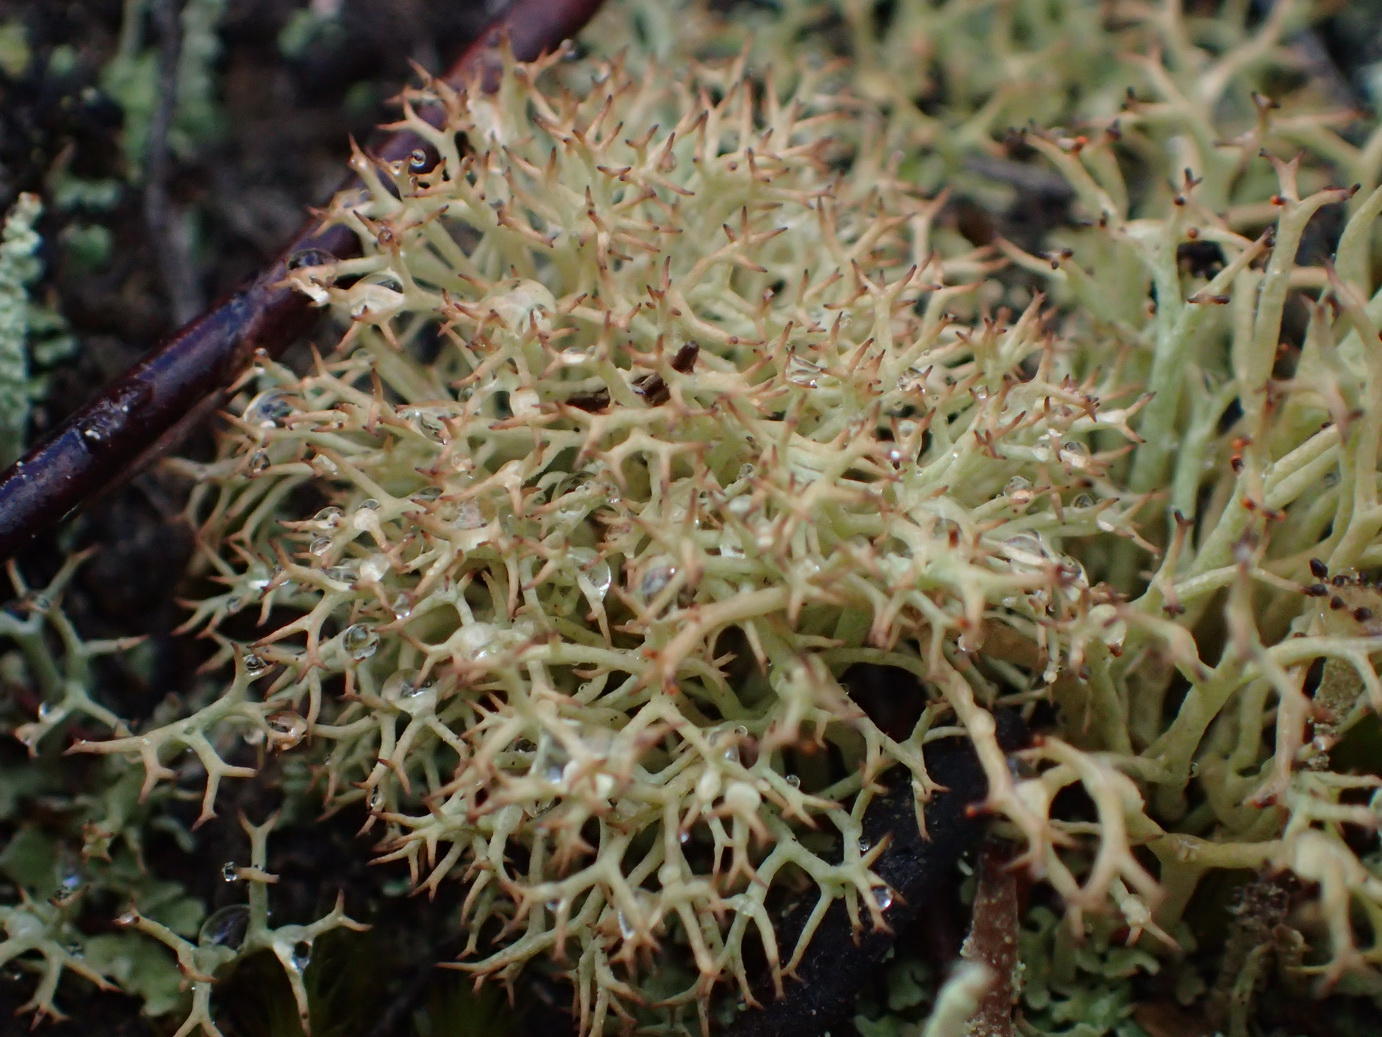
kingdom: Fungi
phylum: Ascomycota
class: Lecanoromycetes
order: Lecanorales
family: Cladoniaceae
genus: Cladonia
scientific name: Cladonia confusa
